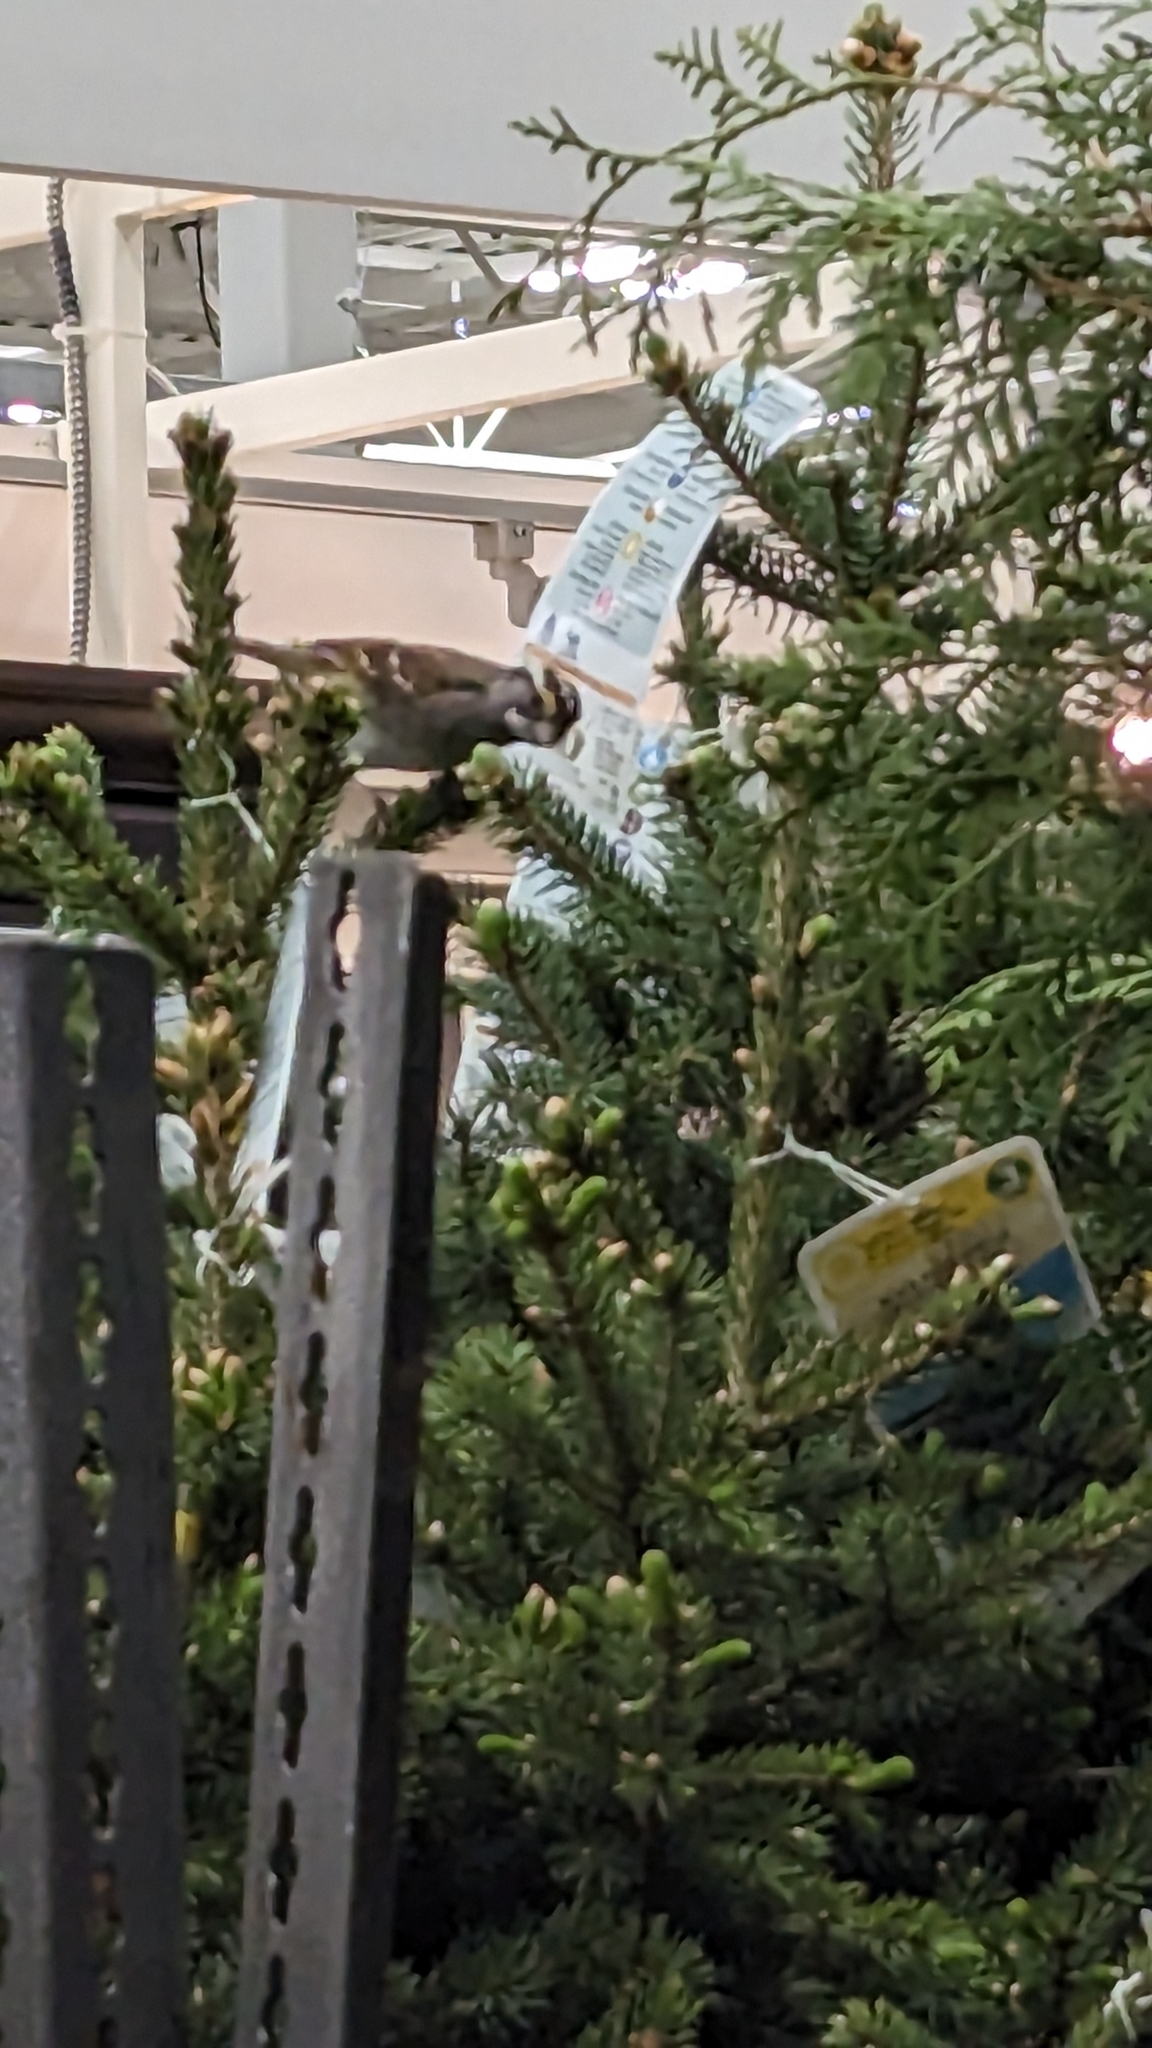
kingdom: Animalia
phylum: Chordata
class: Aves
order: Passeriformes
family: Passerellidae
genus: Zonotrichia
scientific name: Zonotrichia albicollis
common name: White-throated sparrow
